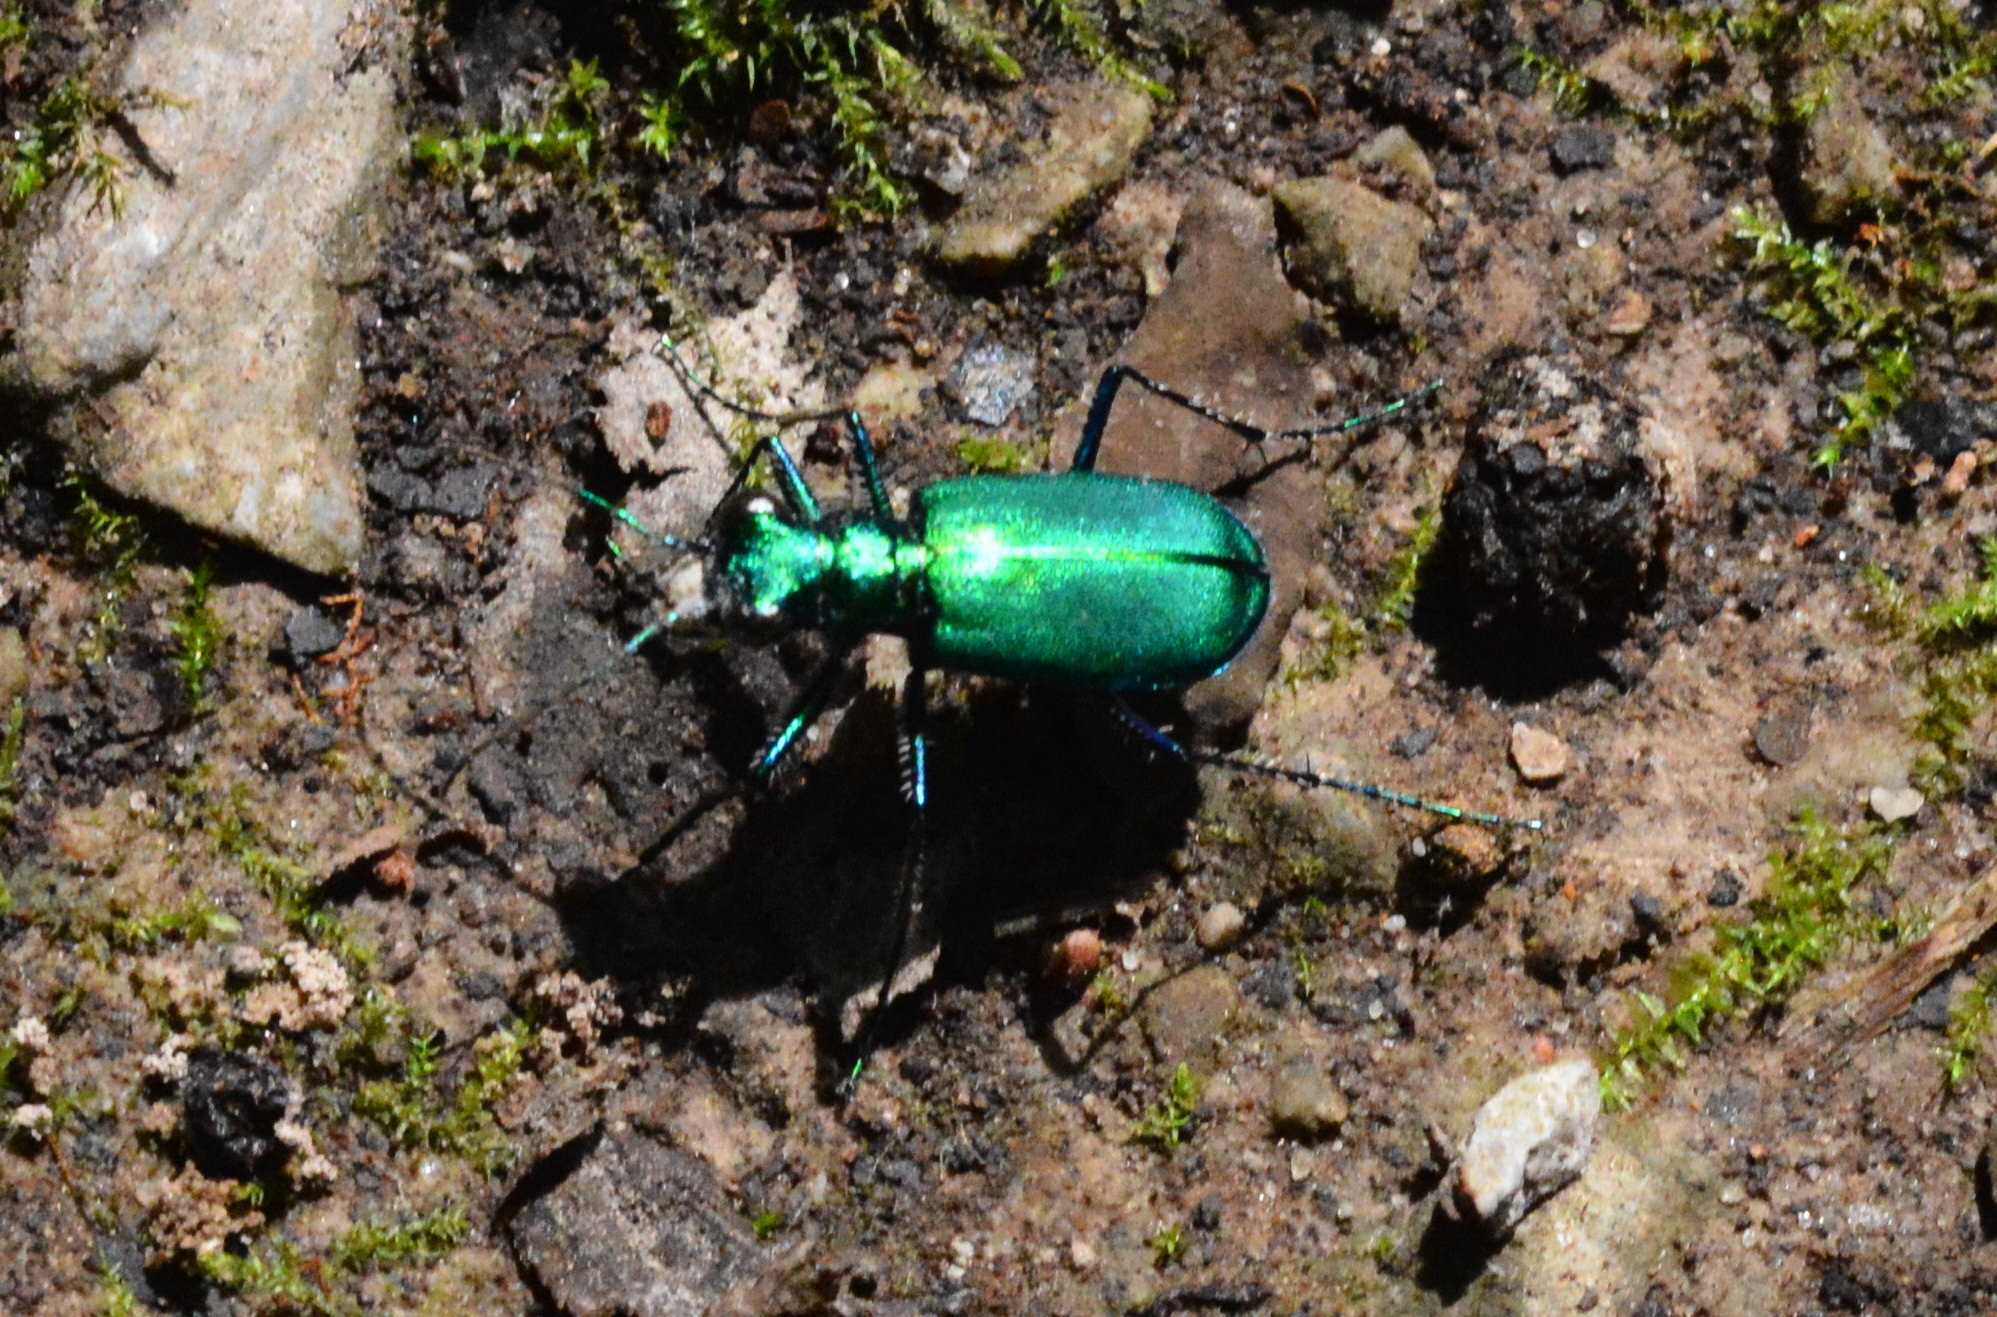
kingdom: Animalia
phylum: Arthropoda
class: Insecta
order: Coleoptera
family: Carabidae
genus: Cicindela
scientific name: Cicindela sexguttata
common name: Six-spotted tiger beetle
